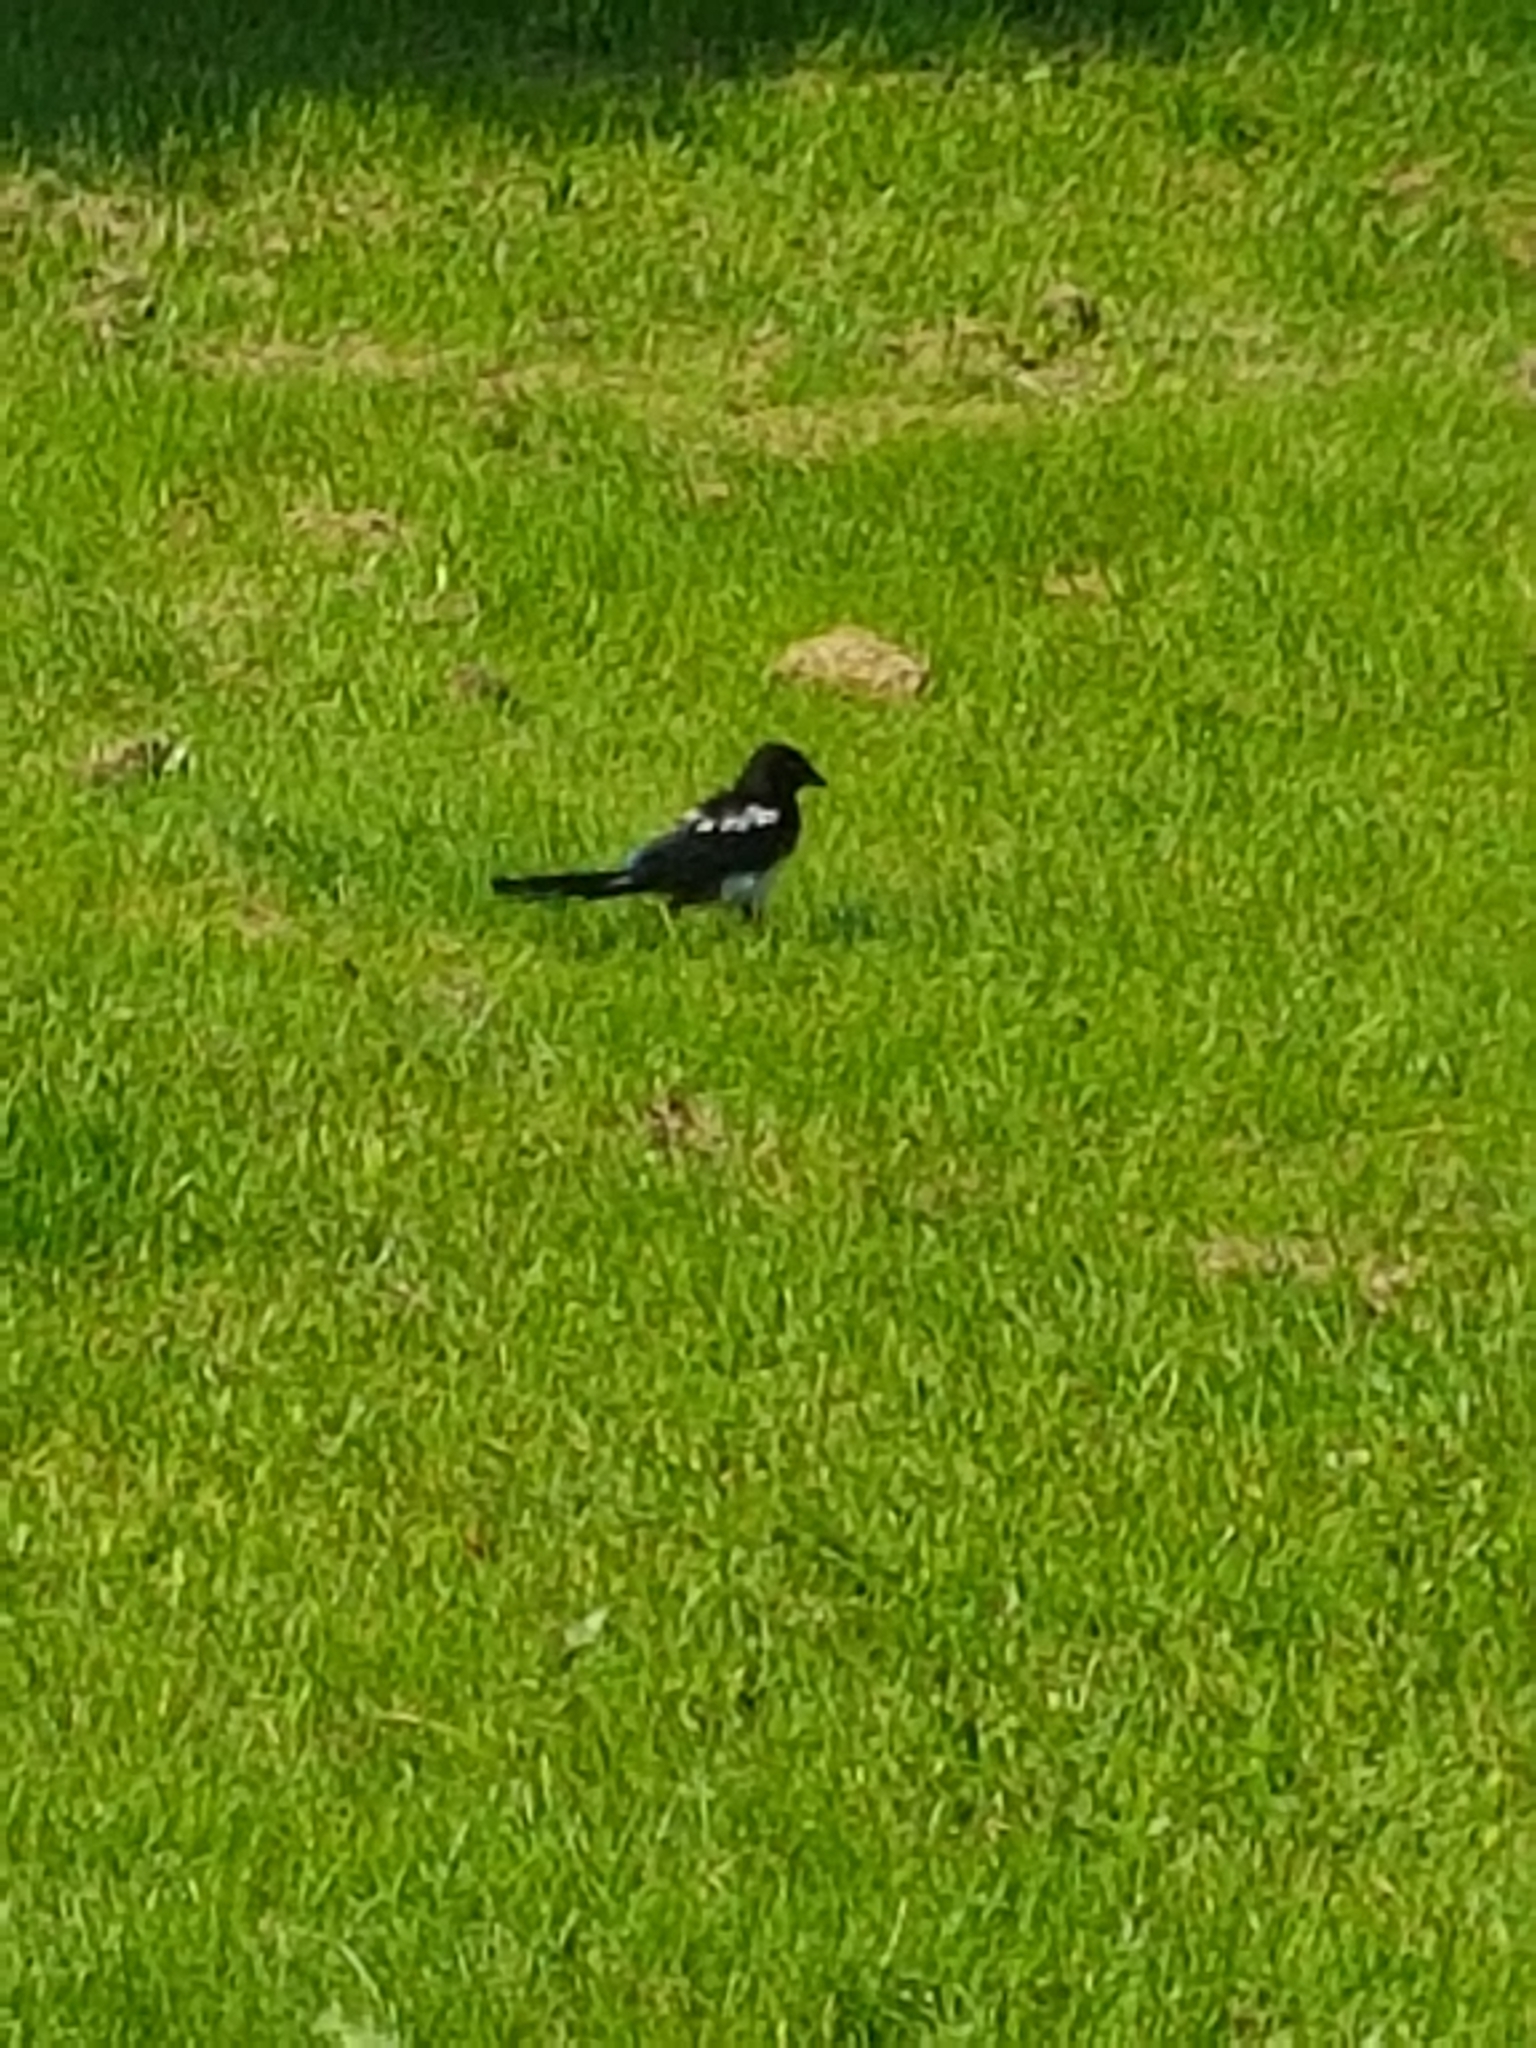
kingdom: Animalia
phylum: Chordata
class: Aves
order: Passeriformes
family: Corvidae
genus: Pica
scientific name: Pica pica
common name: Eurasian magpie
